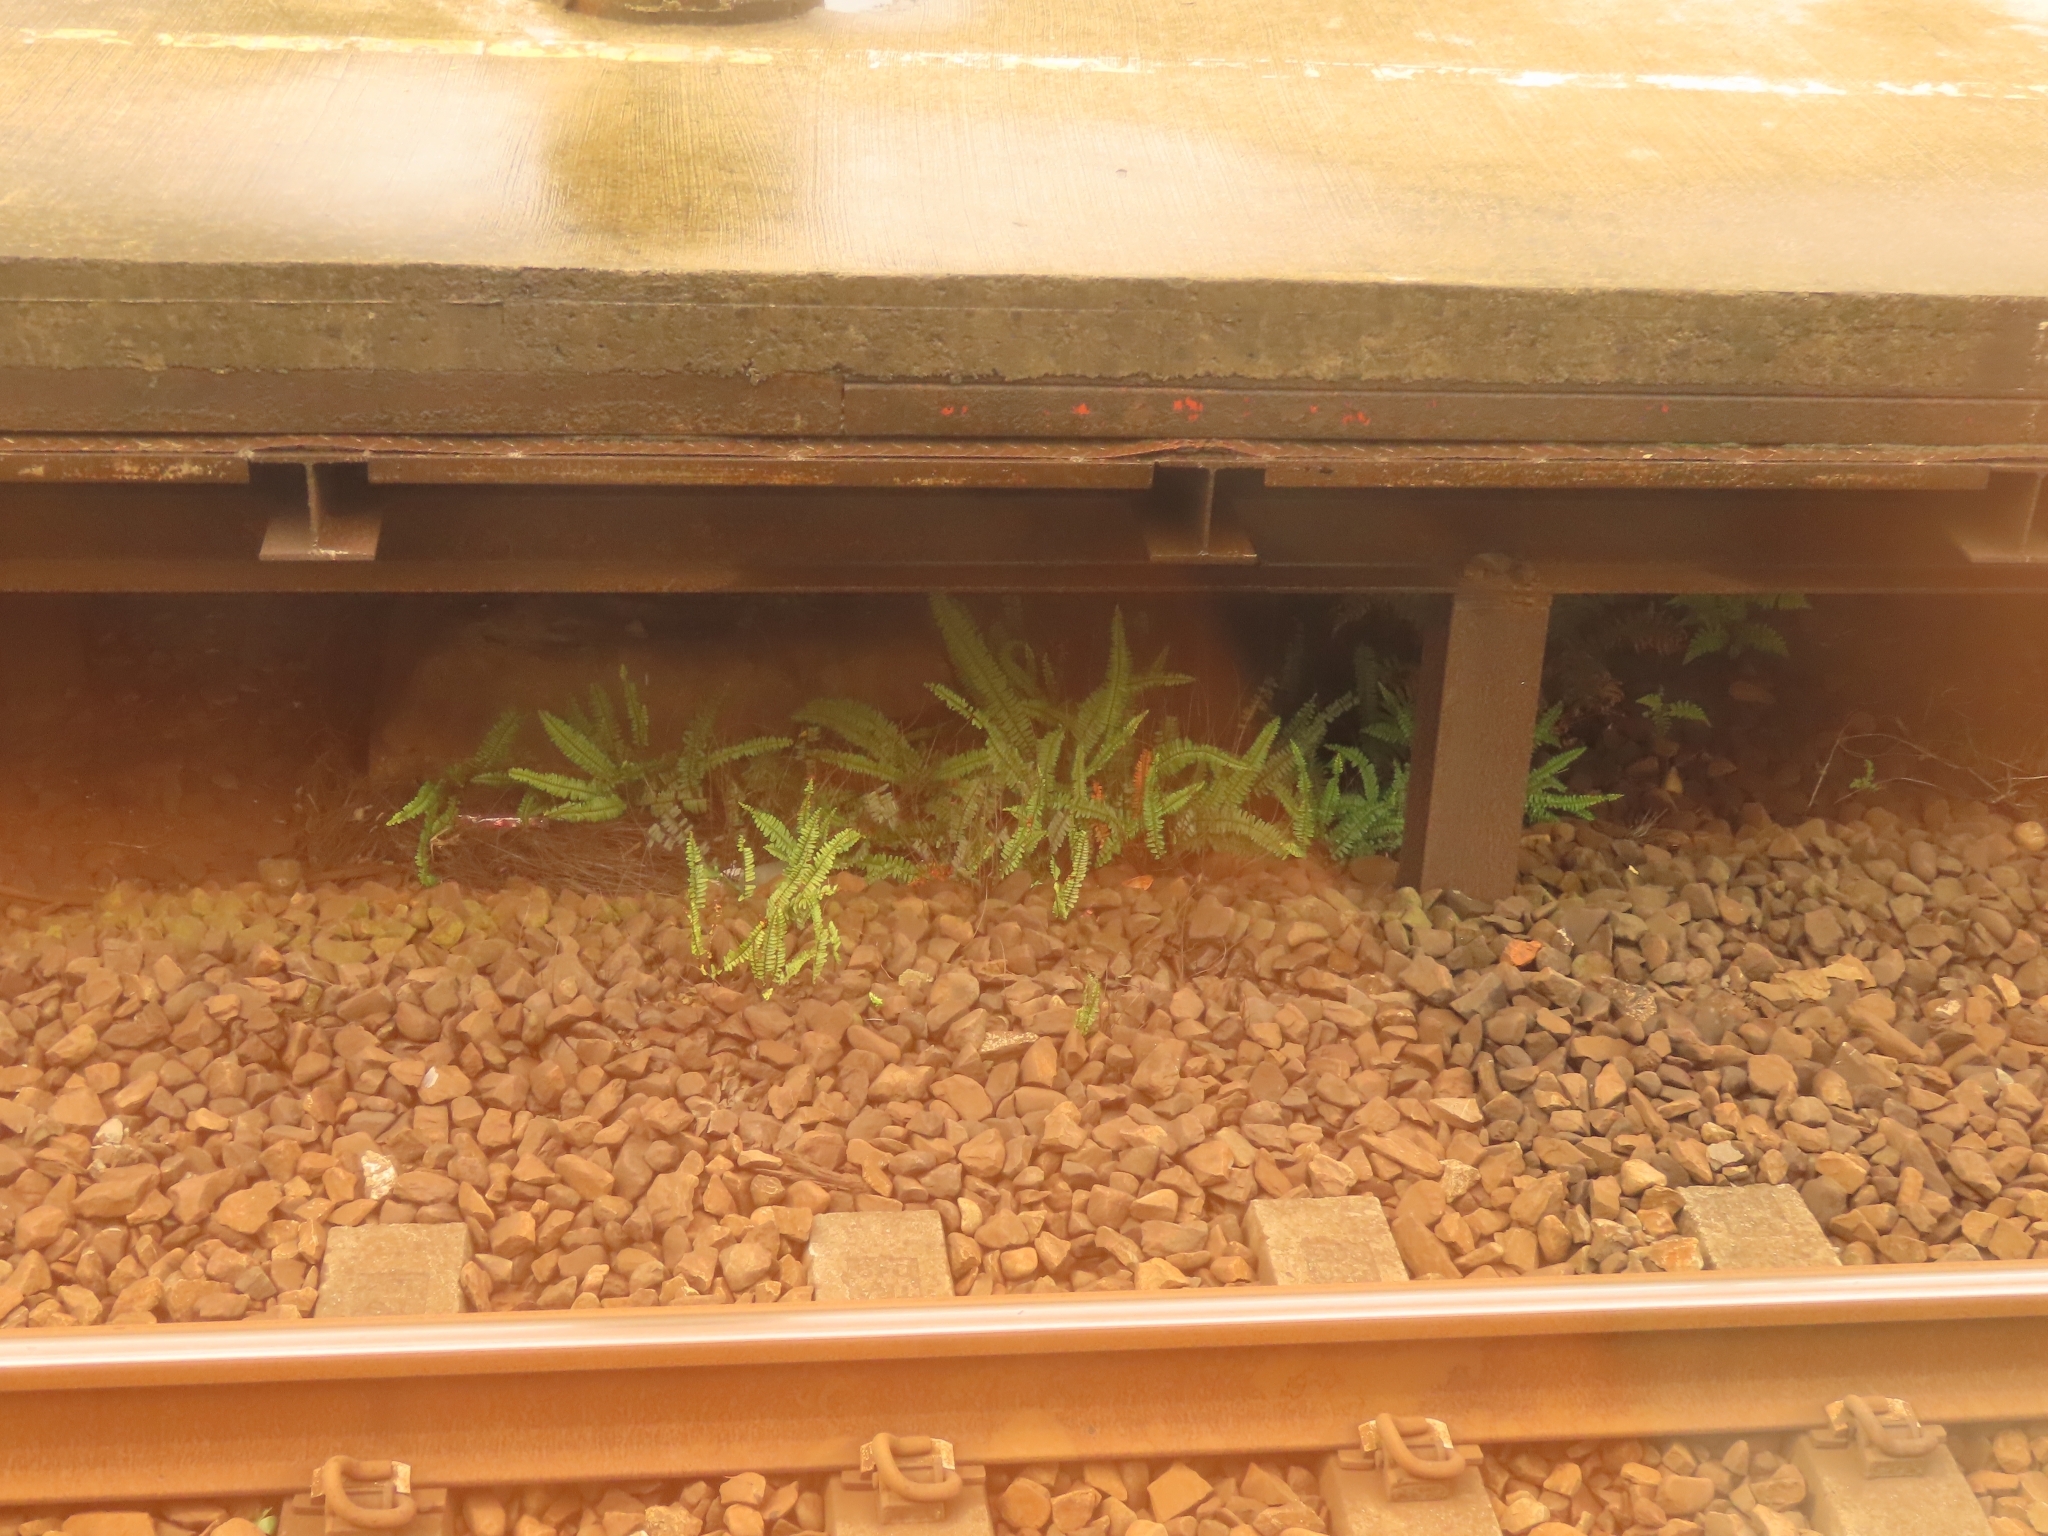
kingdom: Plantae
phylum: Tracheophyta
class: Polypodiopsida
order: Polypodiales
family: Nephrolepidaceae
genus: Nephrolepis
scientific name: Nephrolepis cordifolia
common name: Narrow swordfern
